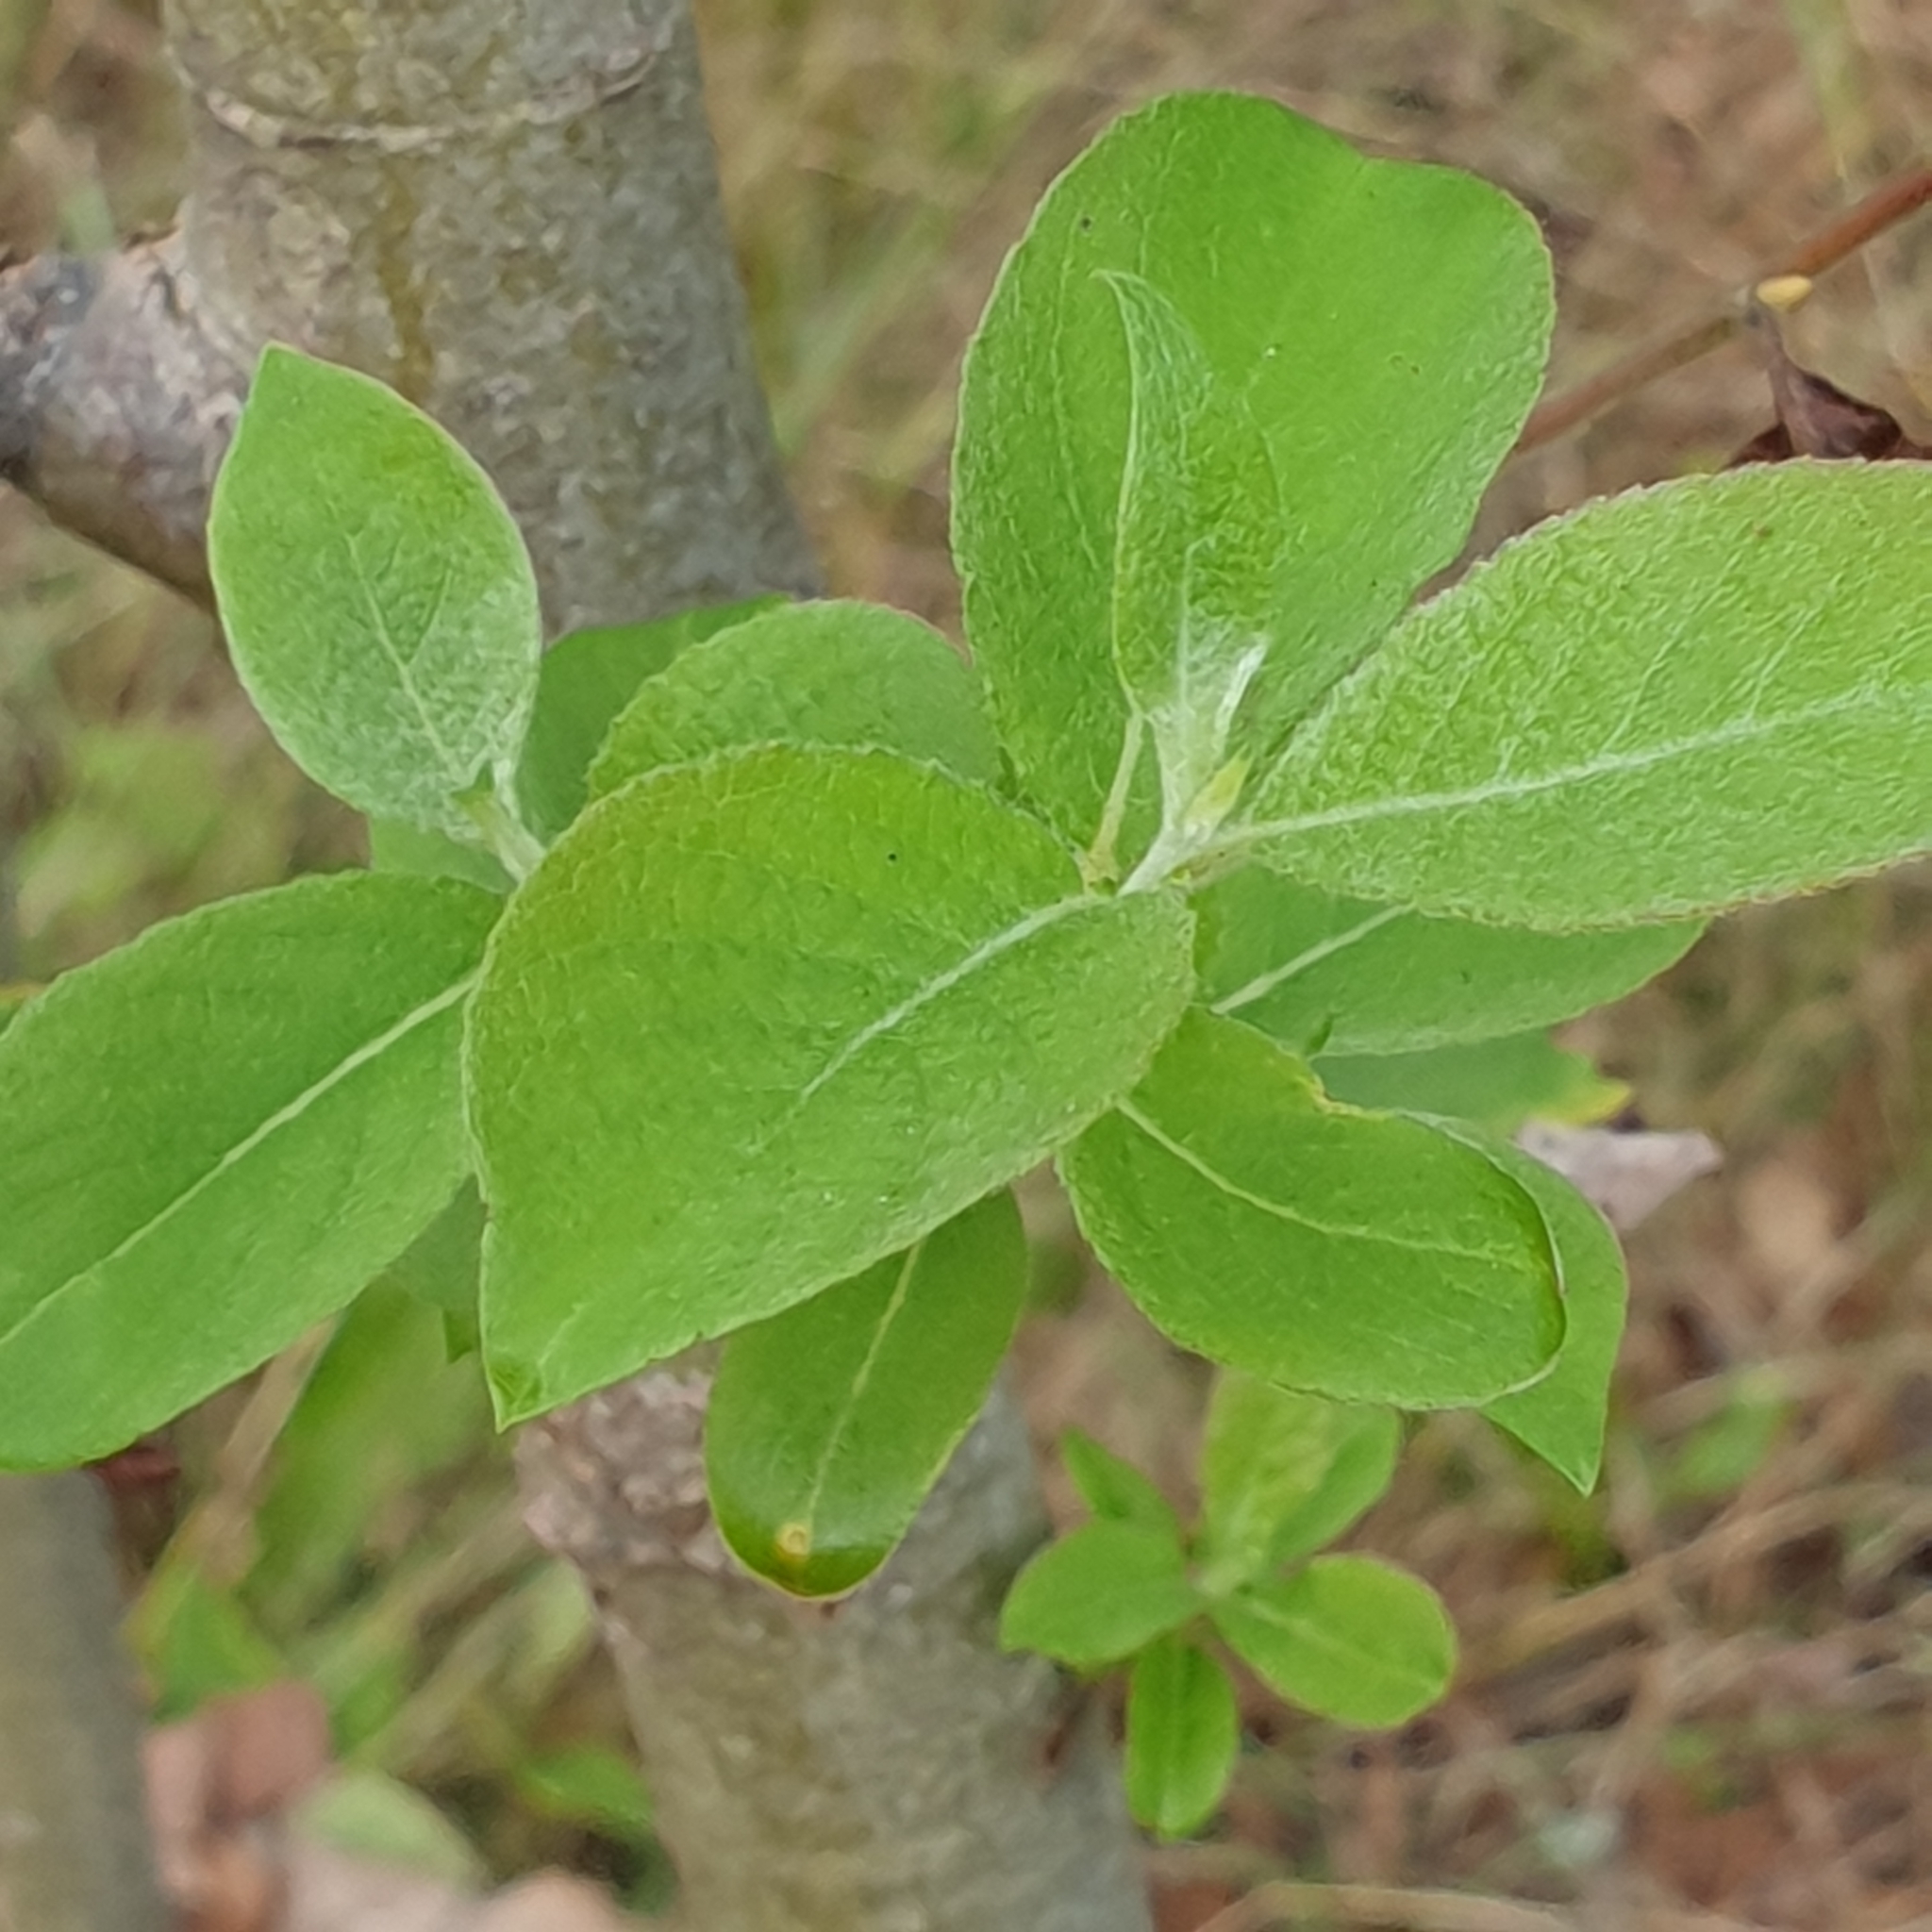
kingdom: Plantae
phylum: Tracheophyta
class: Magnoliopsida
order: Malpighiales
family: Salicaceae
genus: Salix
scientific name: Salix caprea
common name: Goat willow
